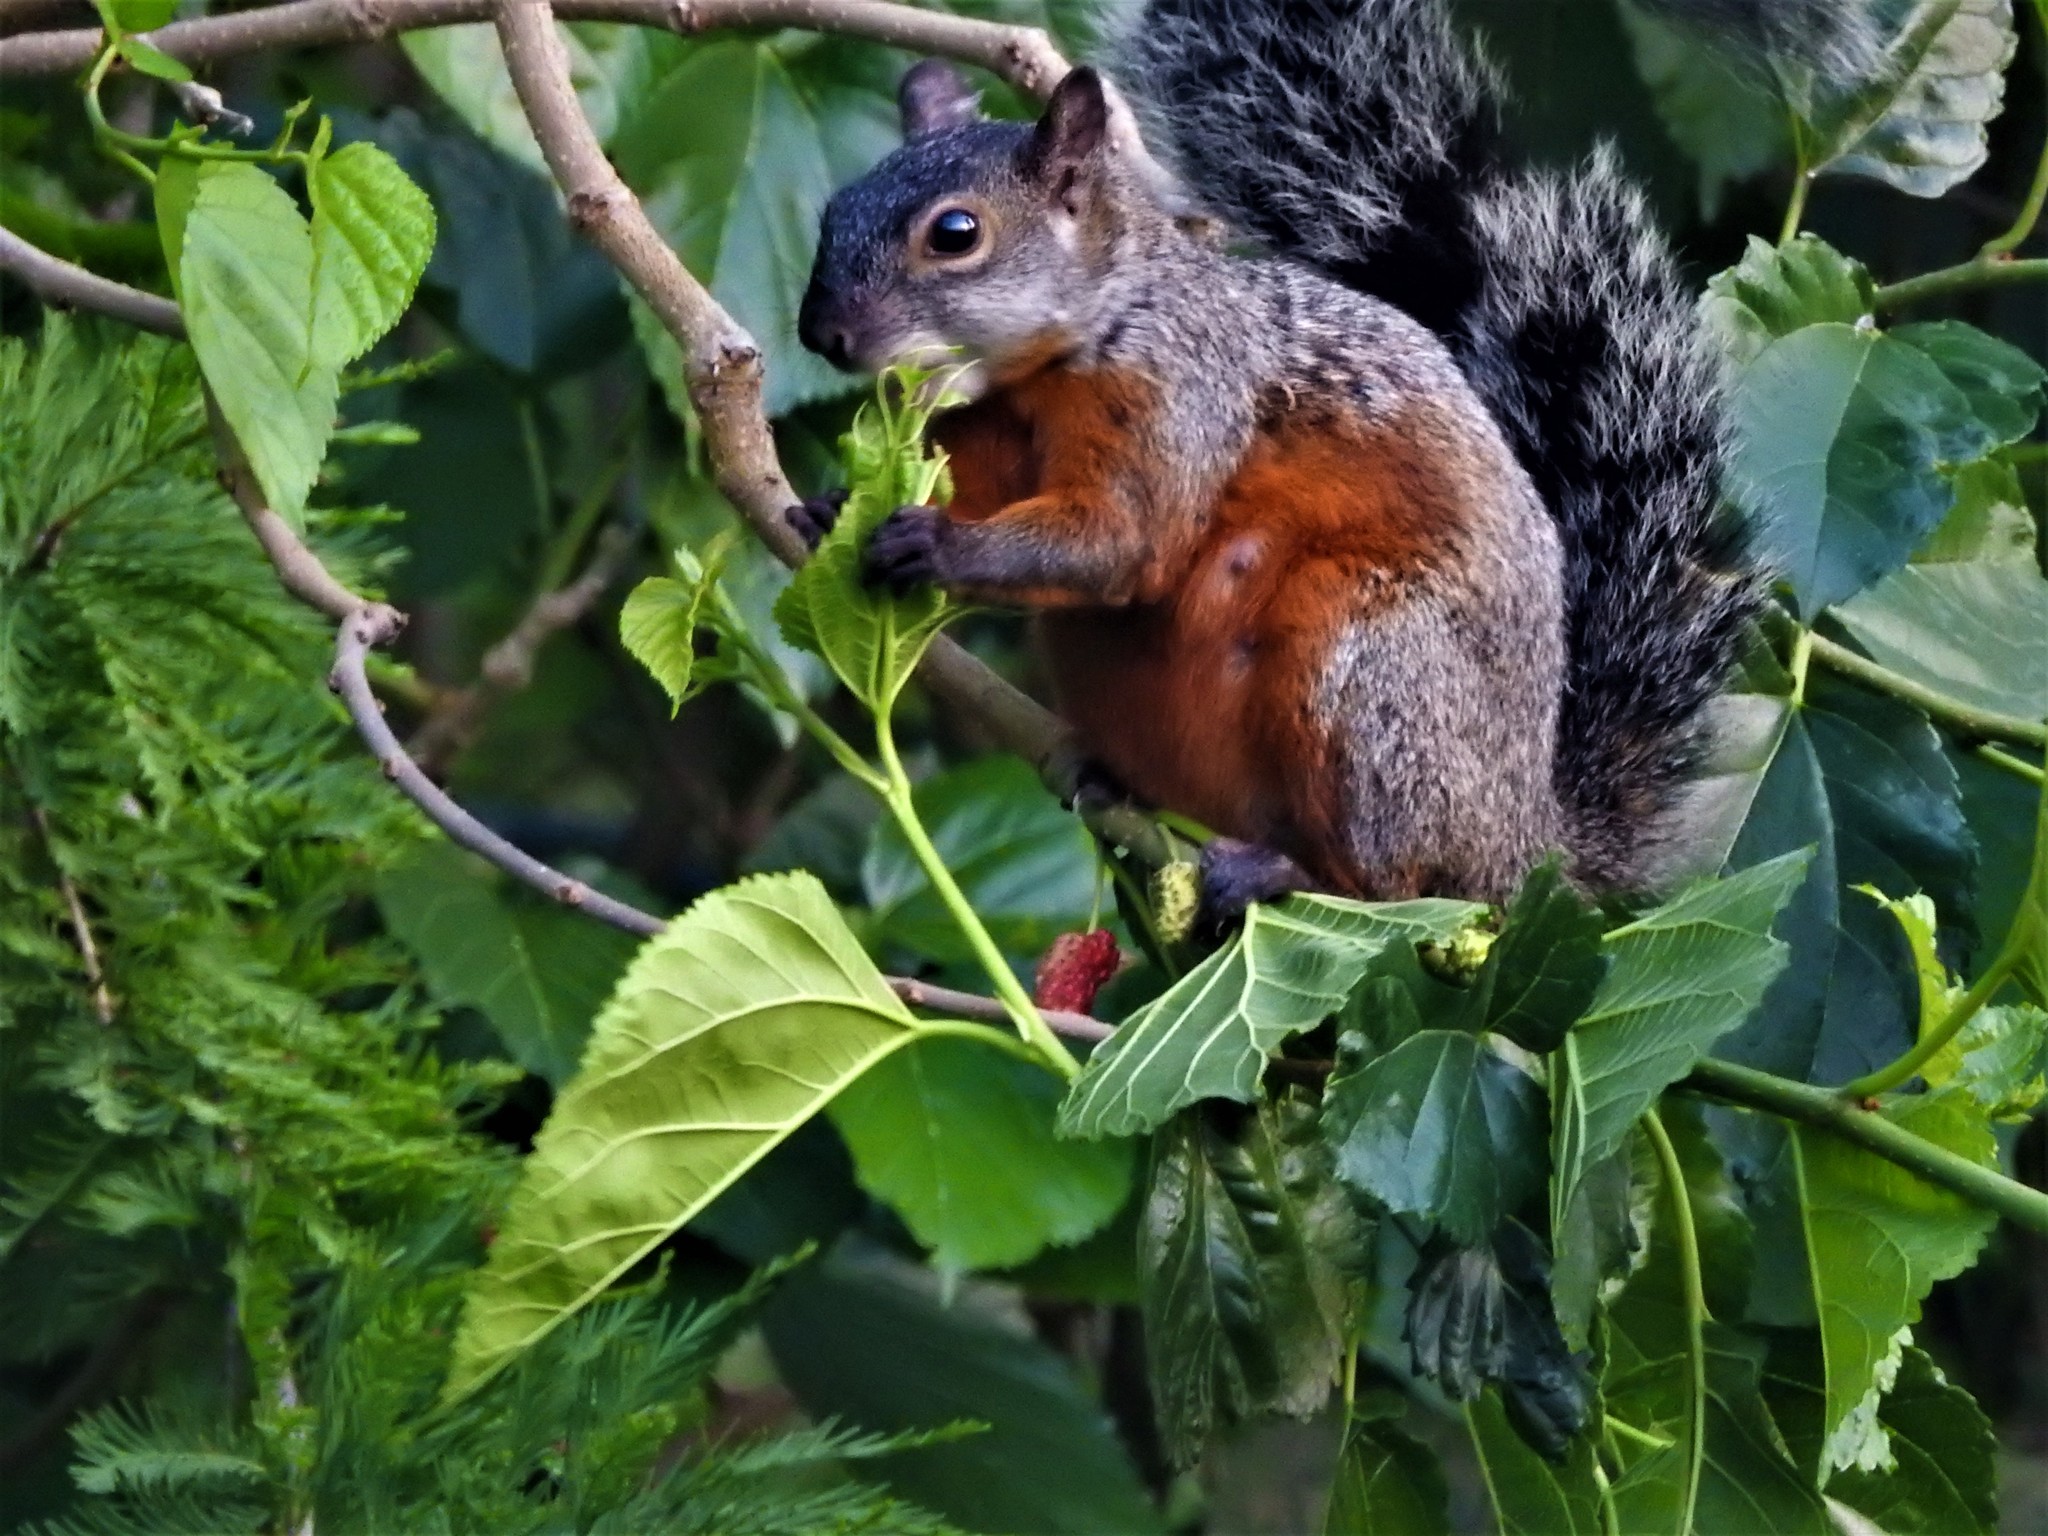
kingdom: Animalia
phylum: Chordata
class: Mammalia
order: Rodentia
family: Sciuridae
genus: Sciurus
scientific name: Sciurus aureogaster
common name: Red-bellied squirrel
